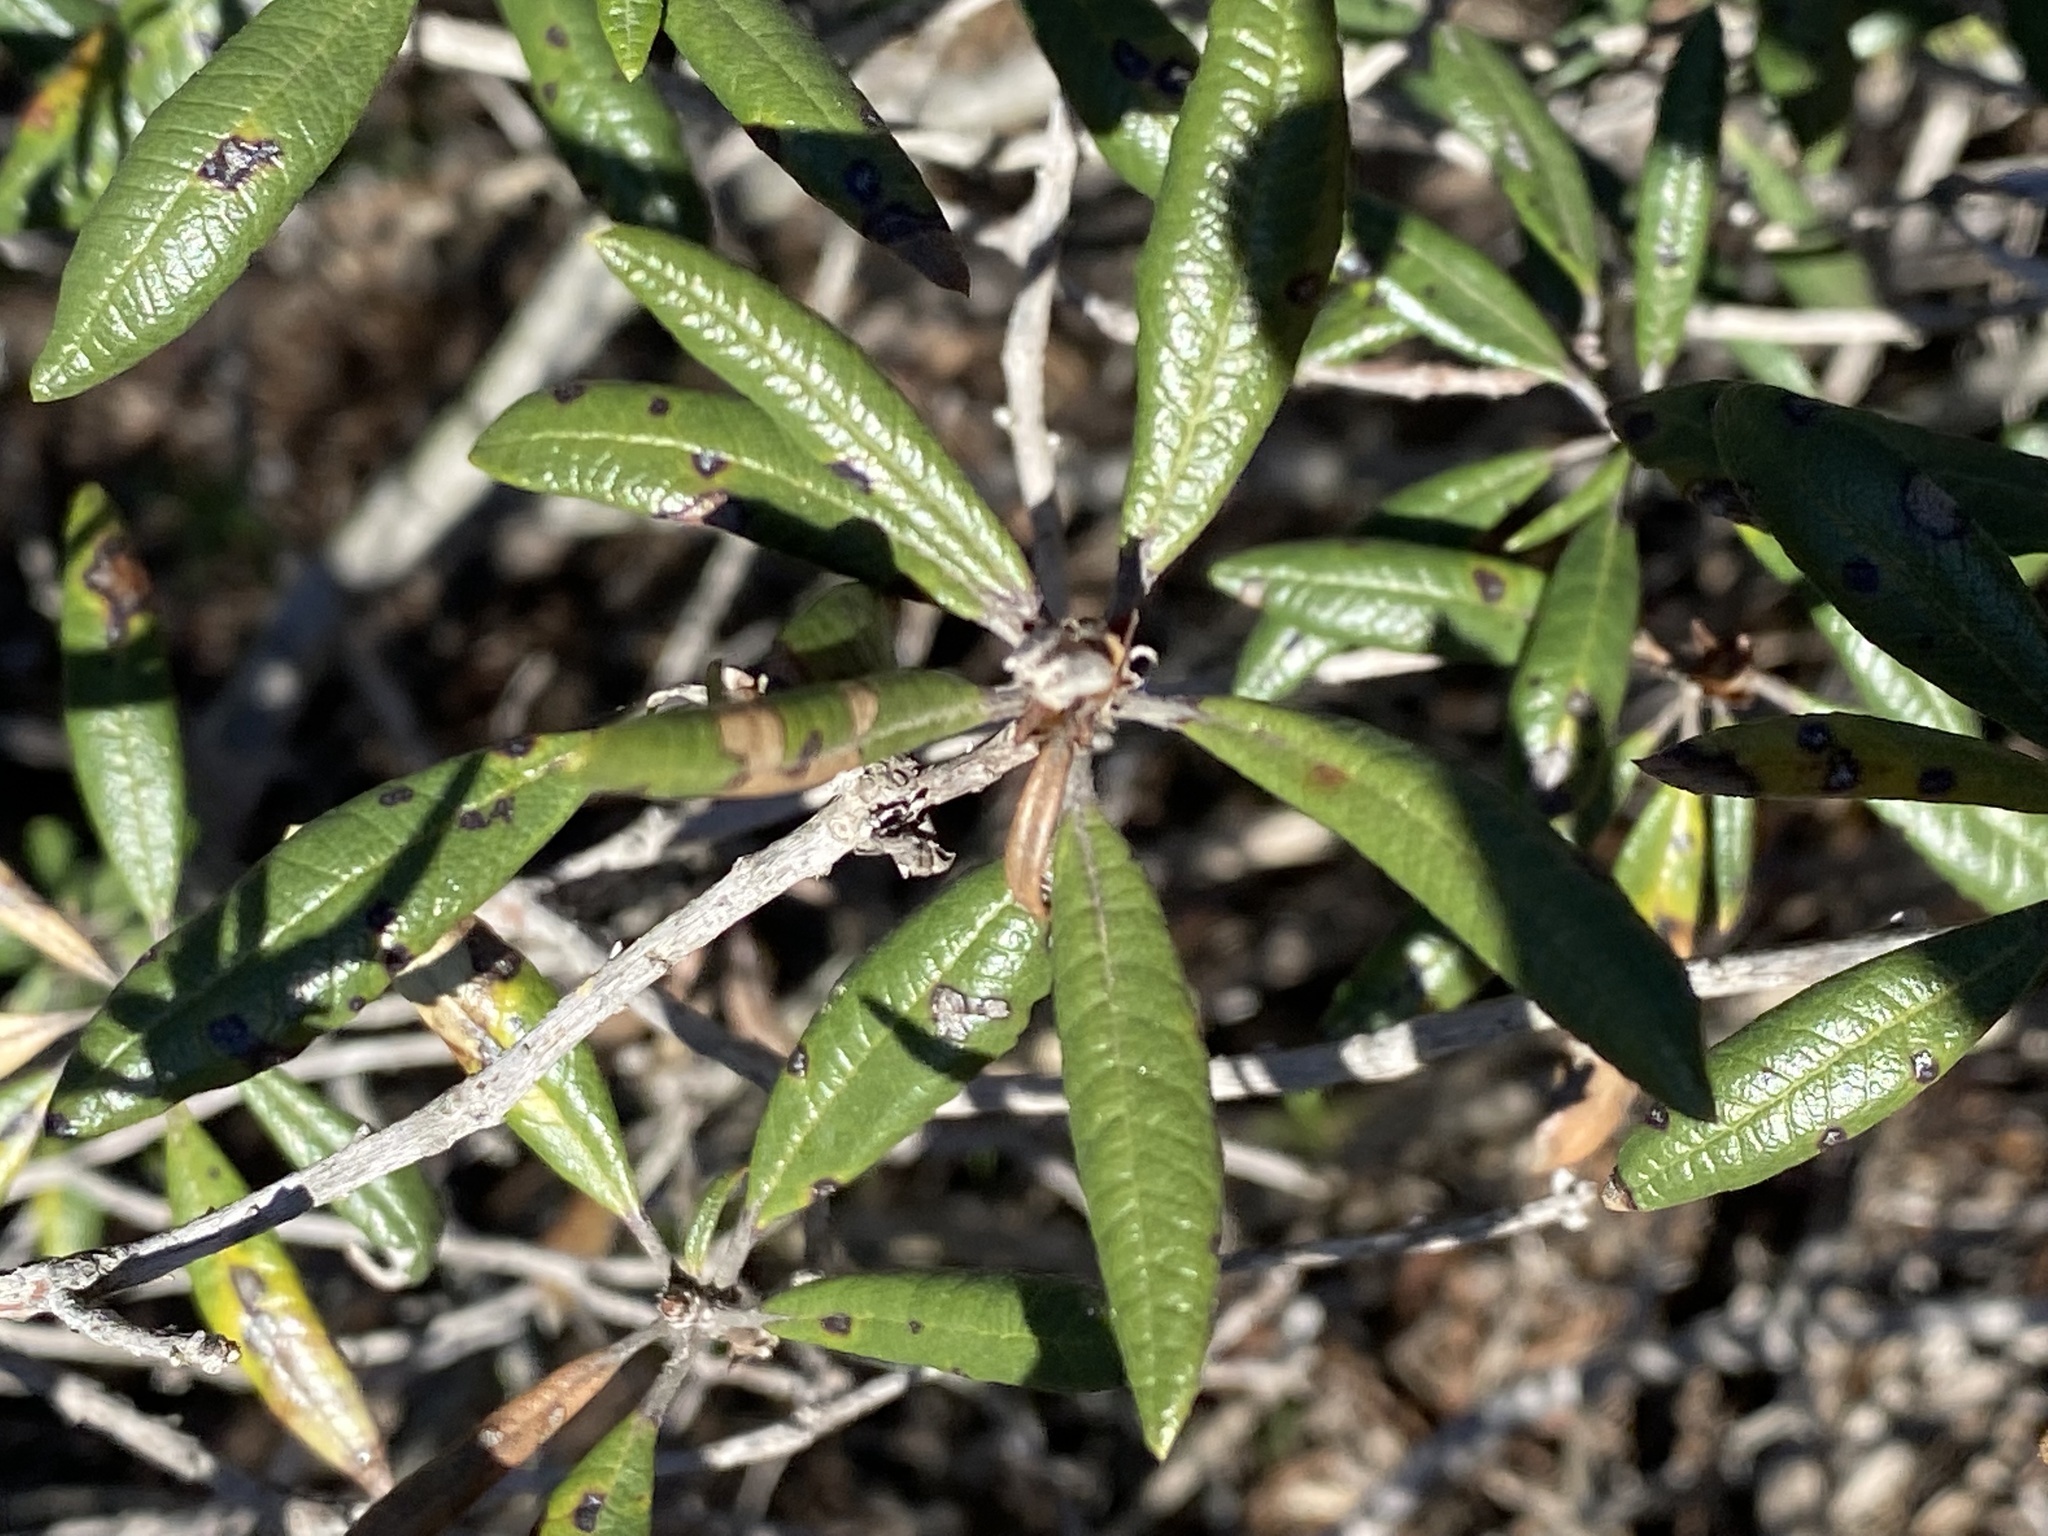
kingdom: Plantae
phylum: Tracheophyta
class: Magnoliopsida
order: Ericales
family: Ericaceae
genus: Comarostaphylis
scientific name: Comarostaphylis diversifolia
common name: Summer-holly
